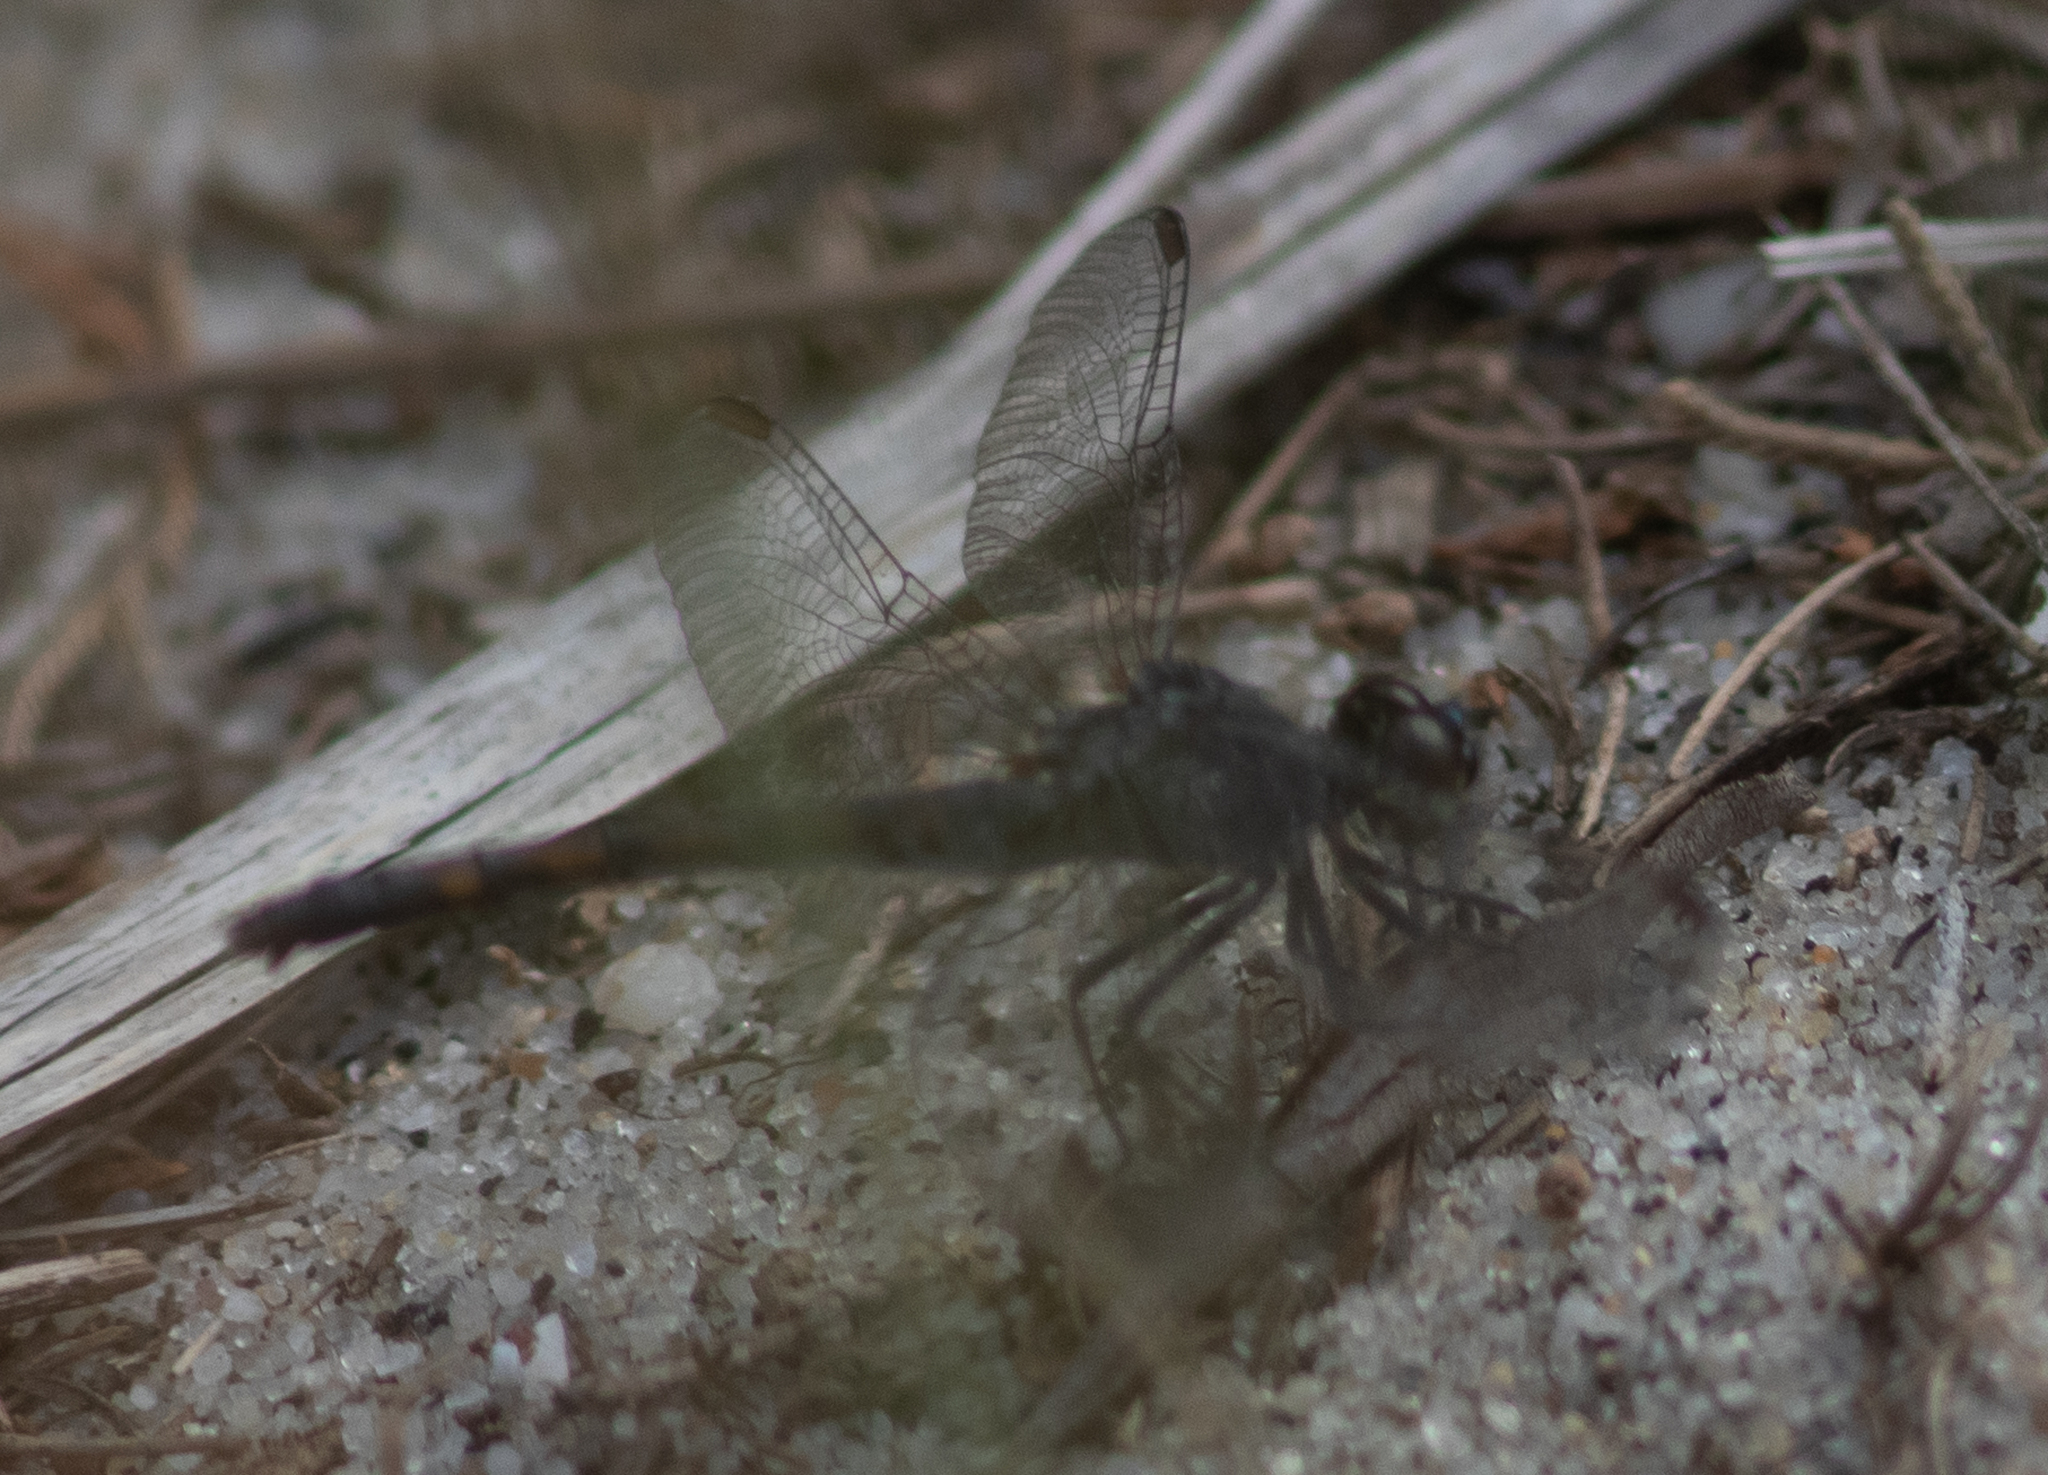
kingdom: Animalia
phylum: Arthropoda
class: Insecta
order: Odonata
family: Libellulidae
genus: Erythrodiplax
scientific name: Erythrodiplax berenice
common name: Seaside dragonlet
